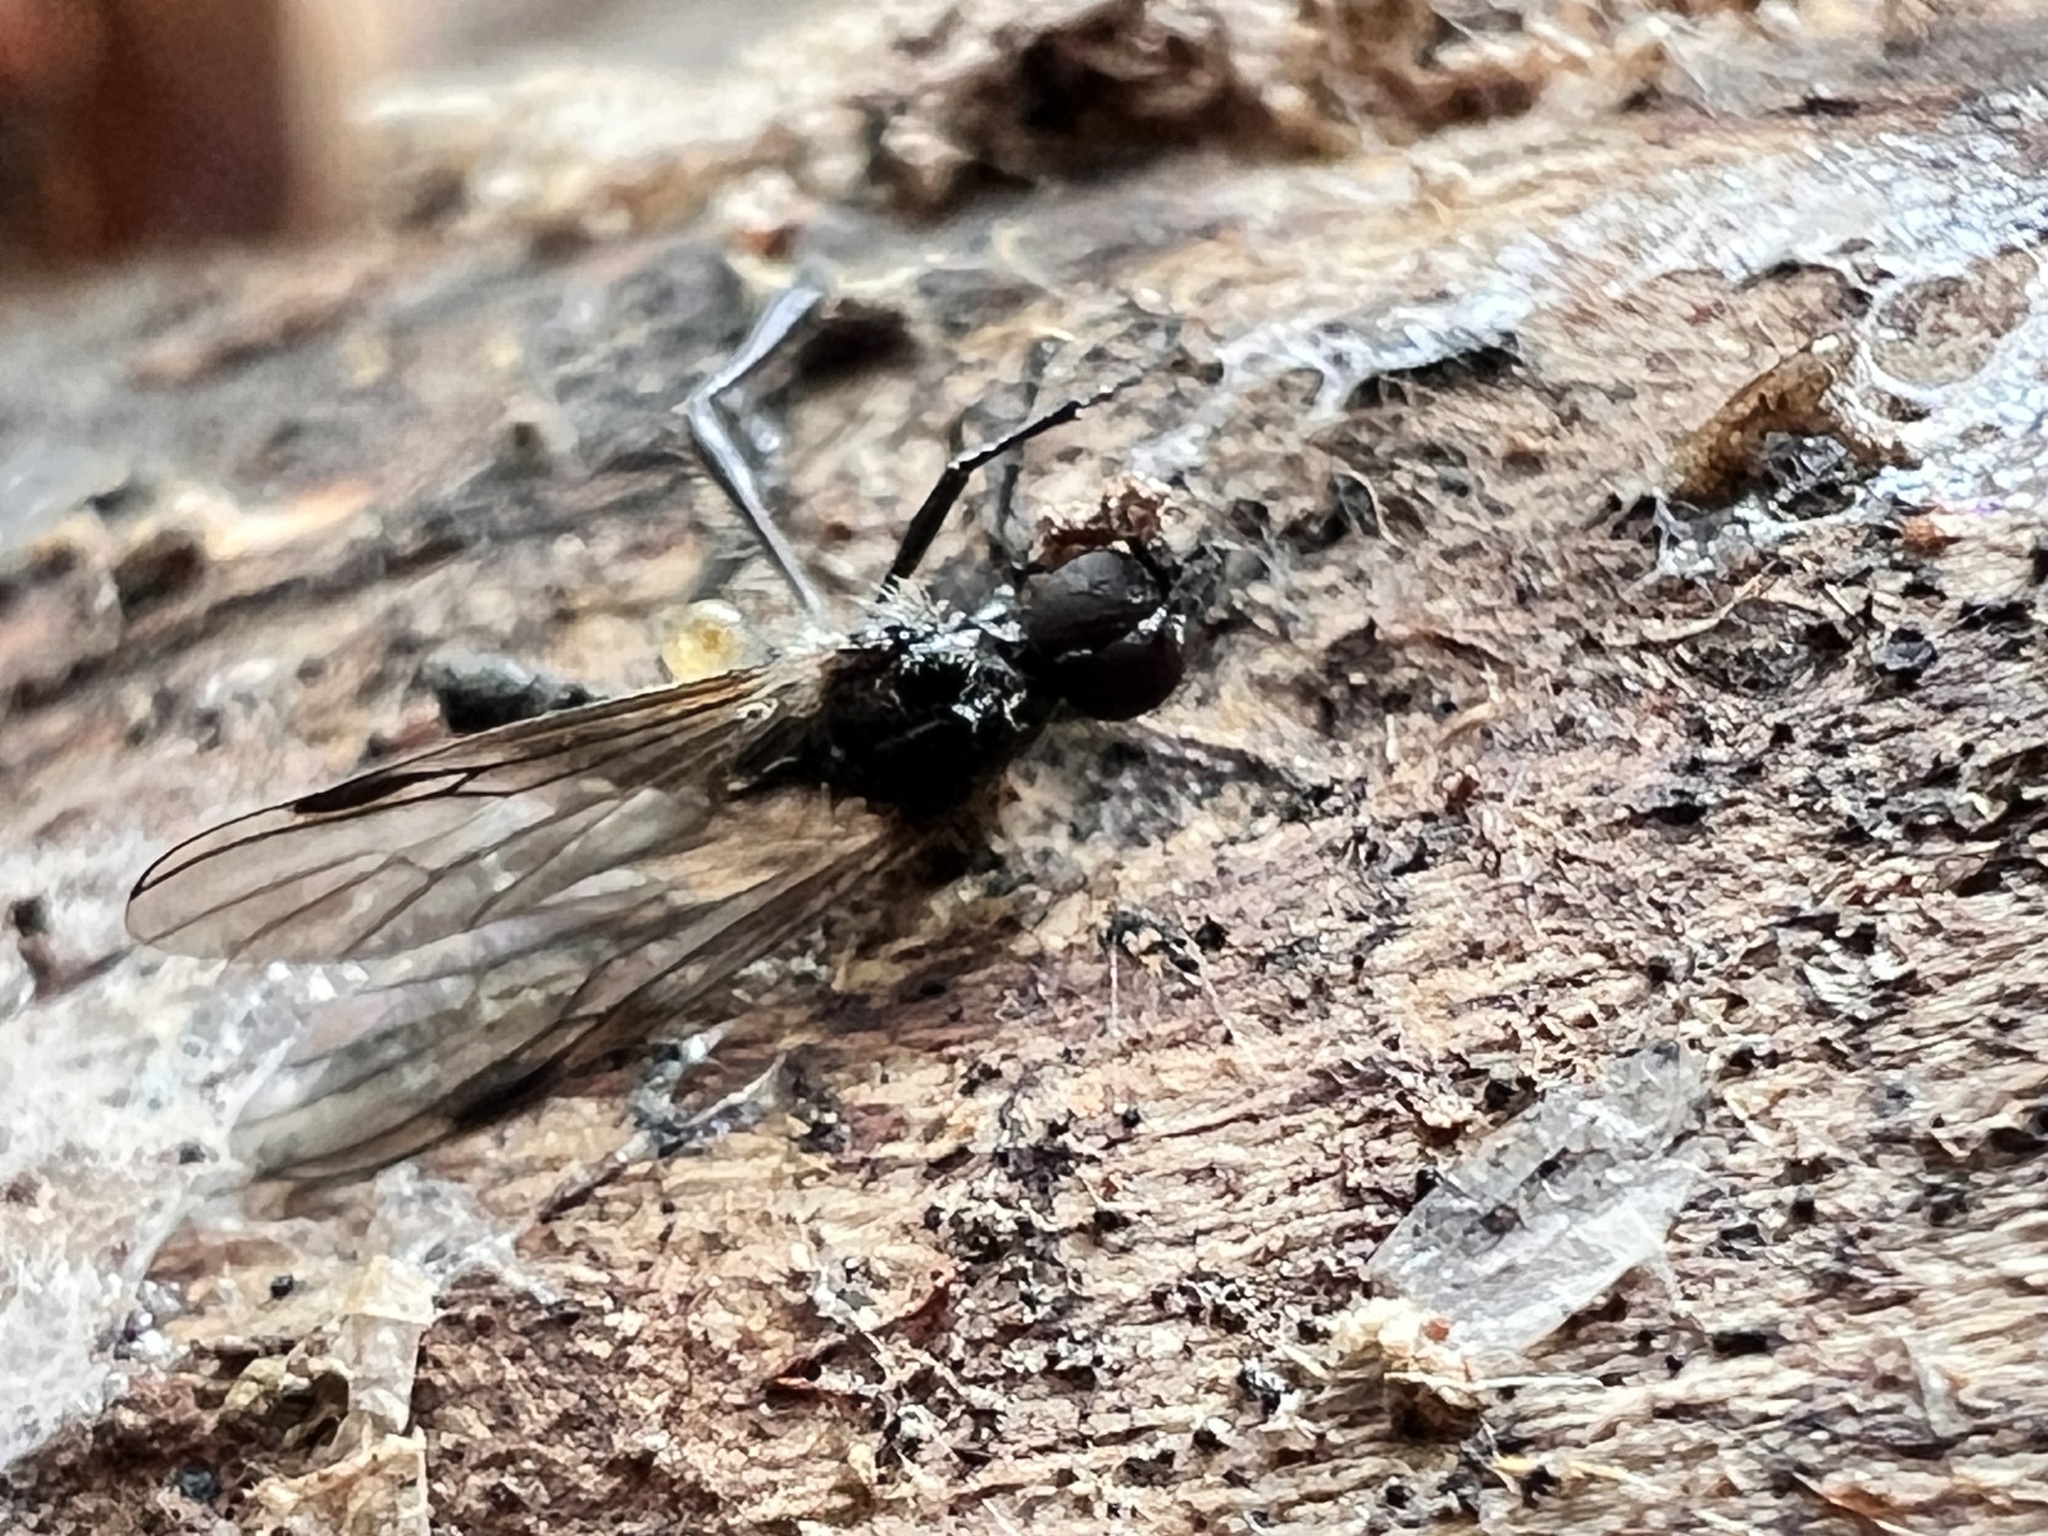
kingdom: Animalia
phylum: Arthropoda
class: Insecta
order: Diptera
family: Bibionidae
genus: Bibio
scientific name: Bibio longipes
